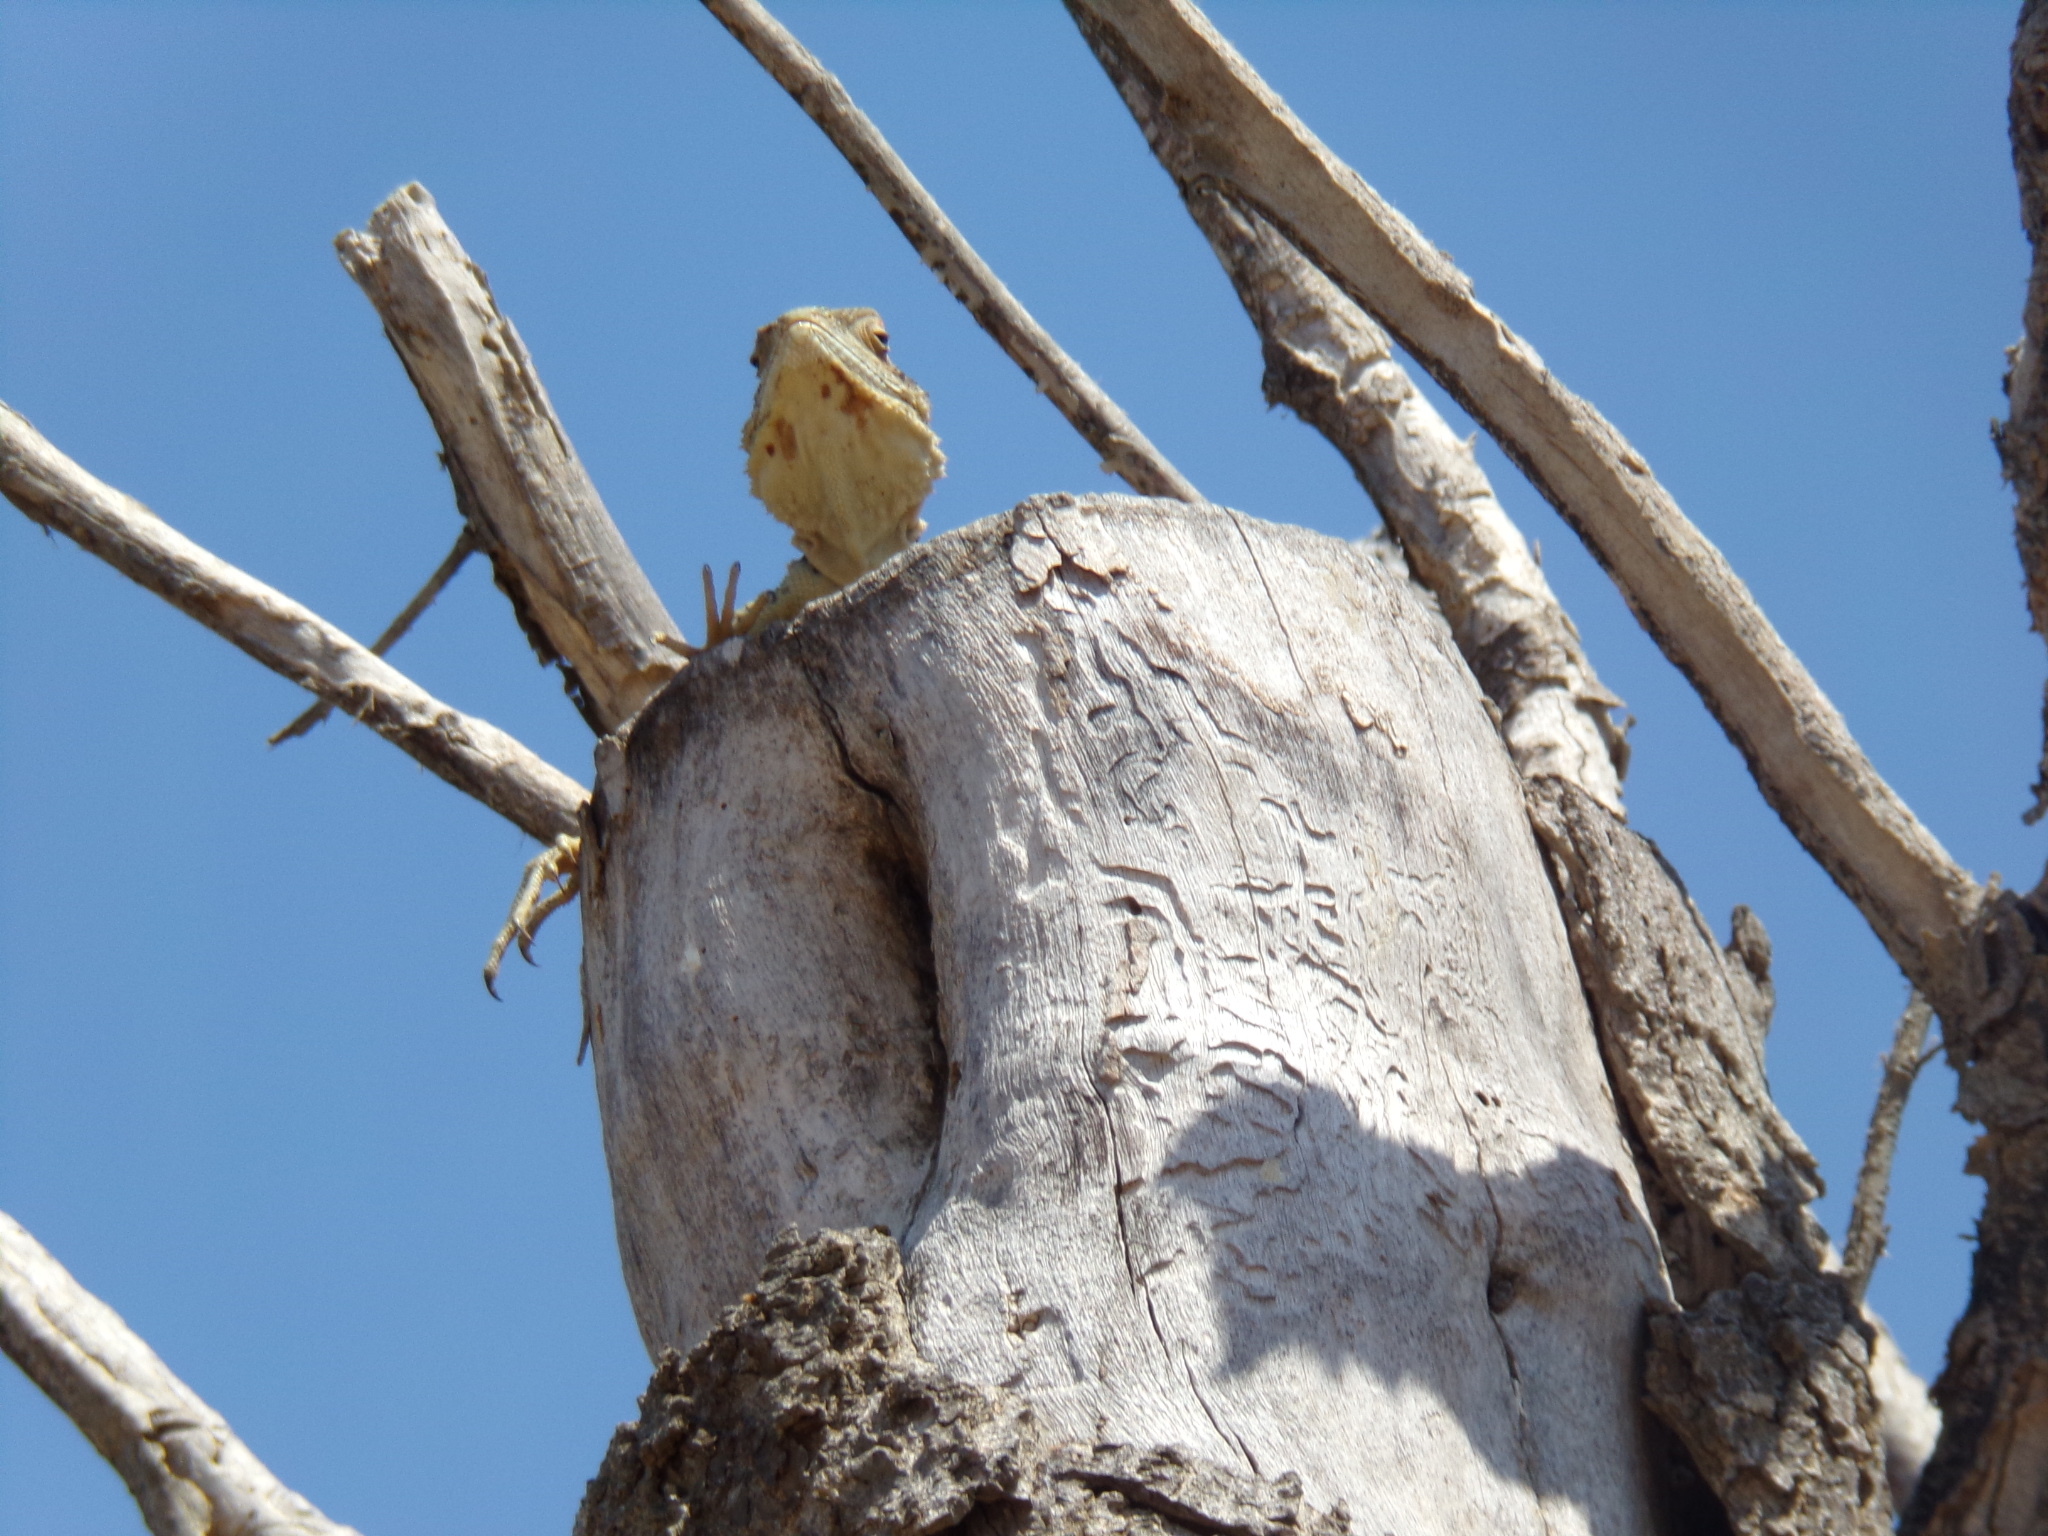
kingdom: Animalia
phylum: Chordata
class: Squamata
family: Agamidae
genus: Laudakia
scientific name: Laudakia
